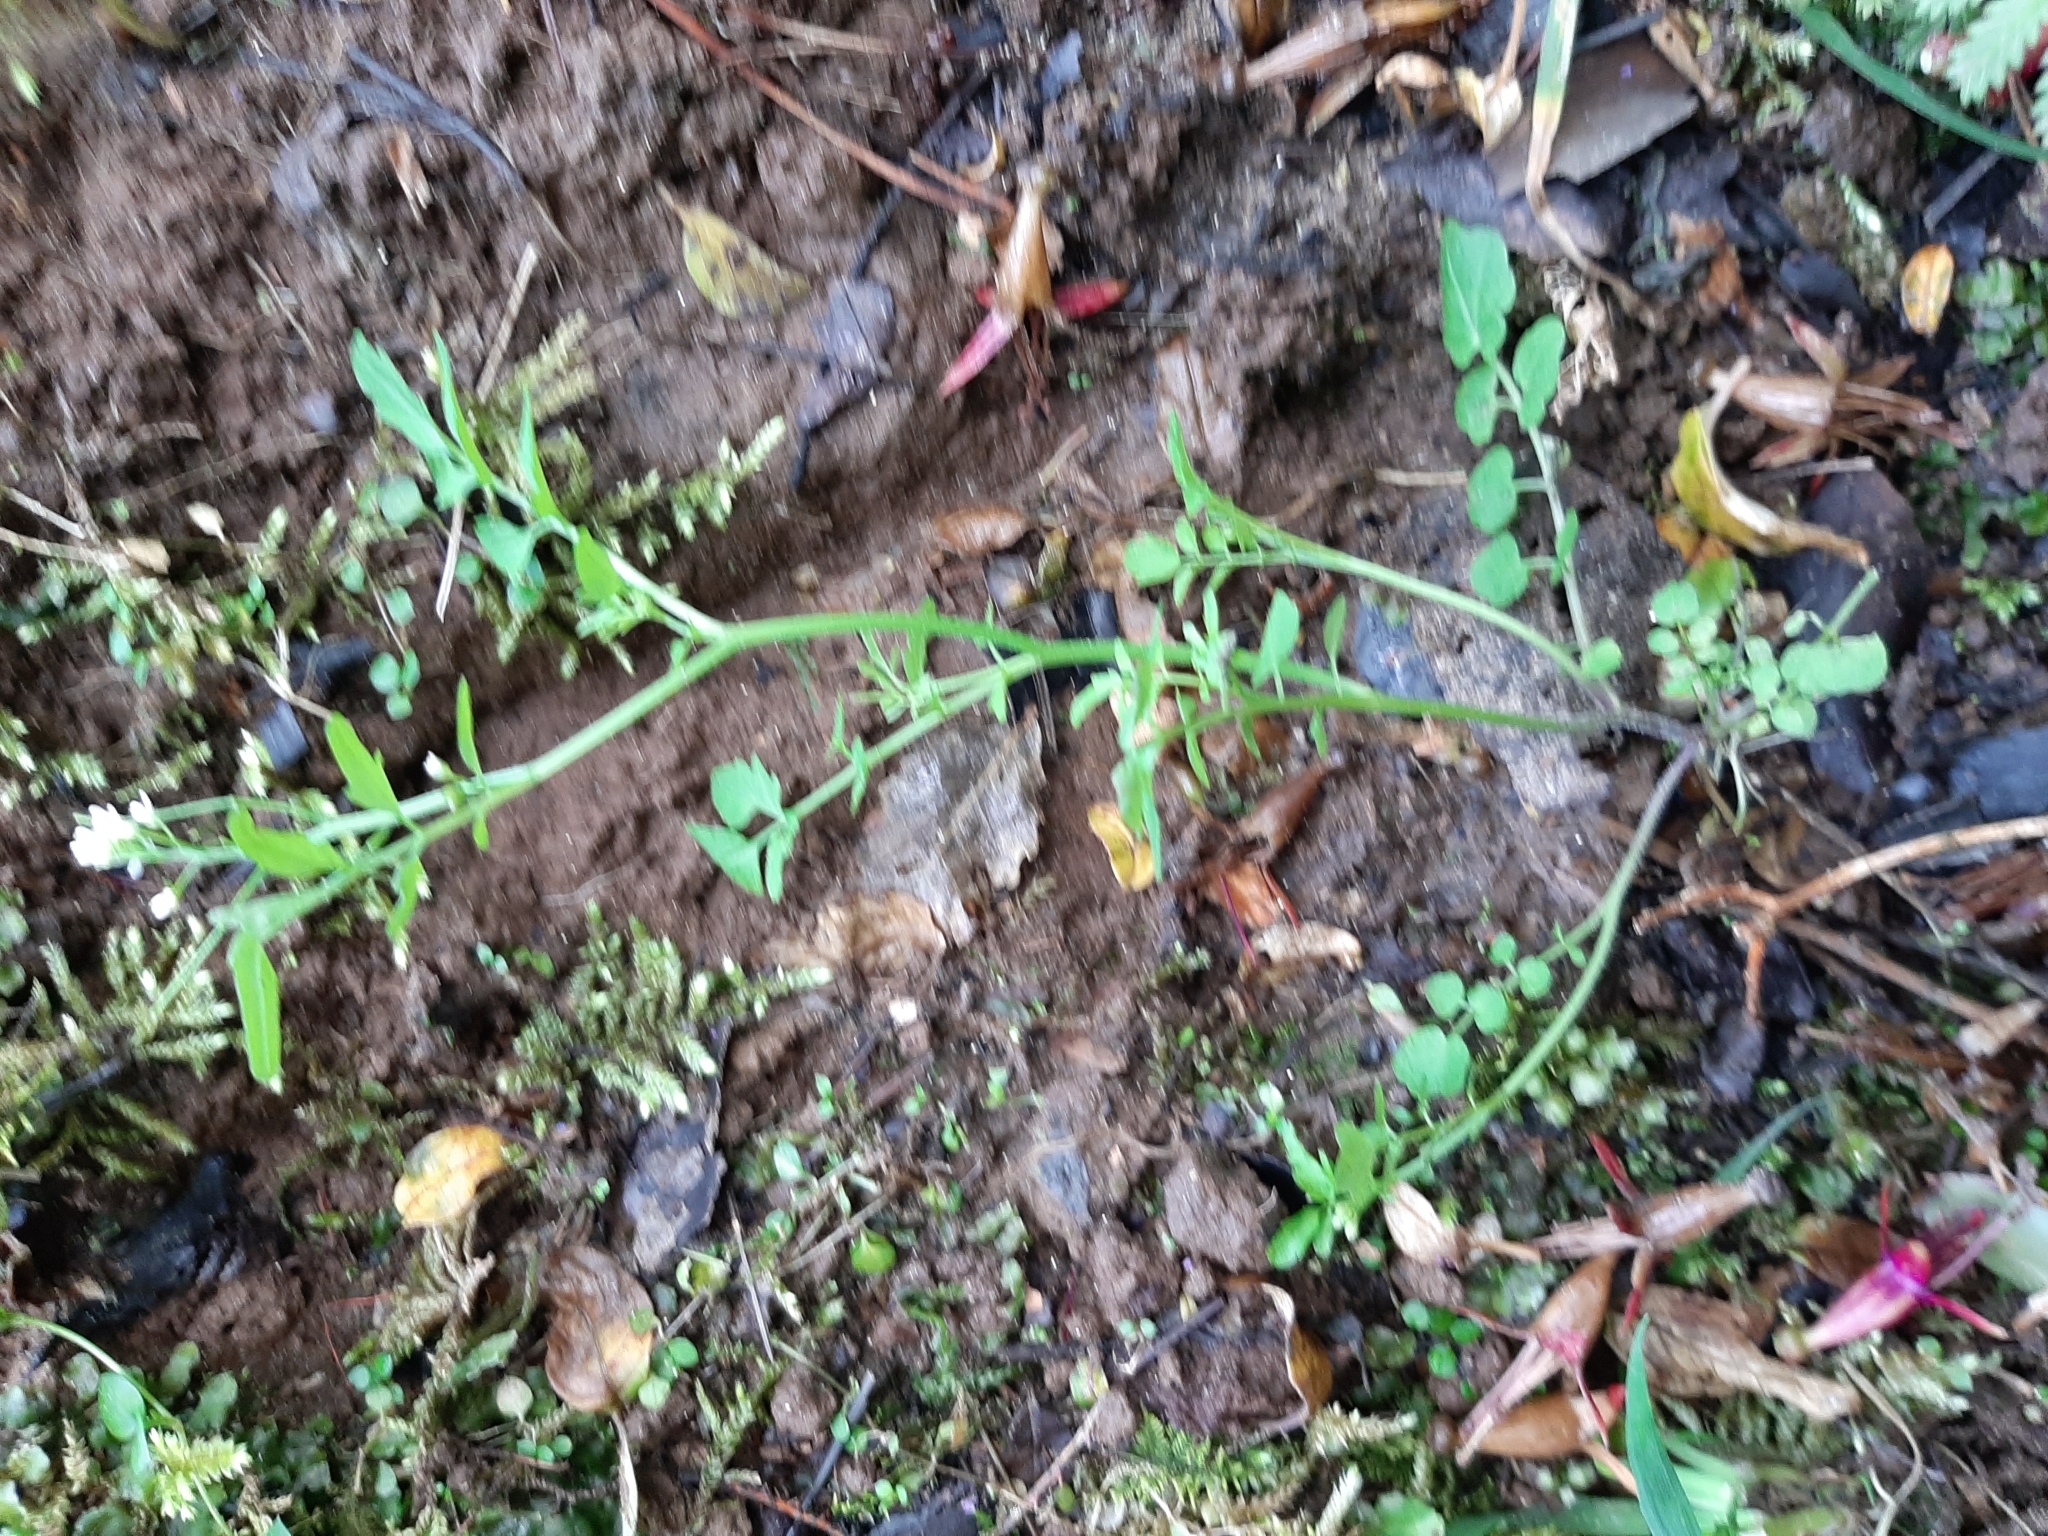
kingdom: Plantae
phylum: Tracheophyta
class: Magnoliopsida
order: Brassicales
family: Brassicaceae
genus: Cardamine
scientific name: Cardamine flexuosa
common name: Woodland bittercress
